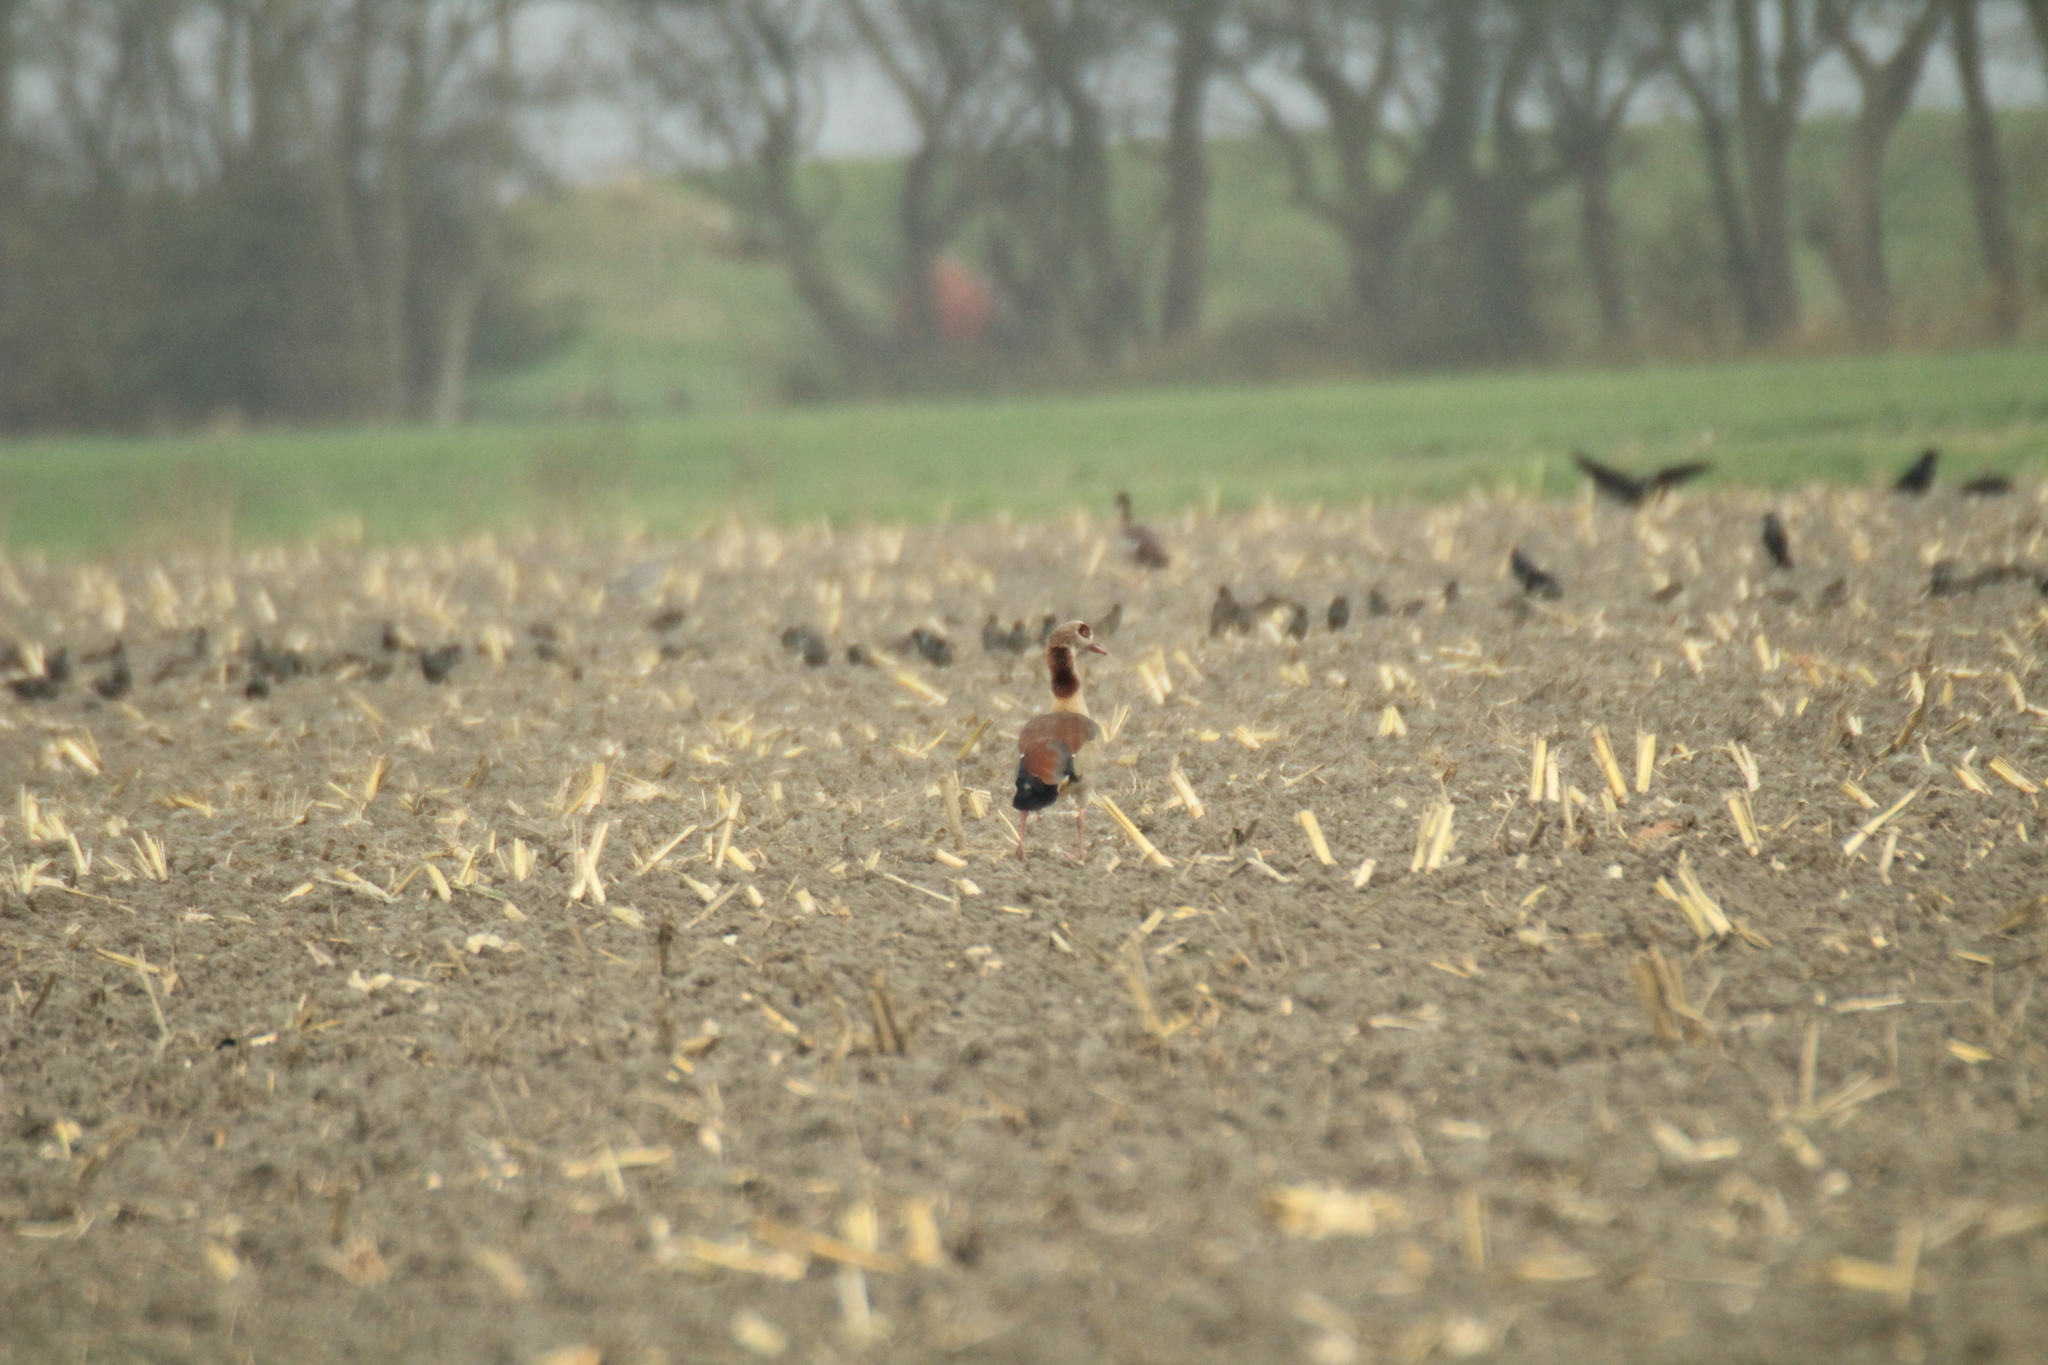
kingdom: Animalia
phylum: Chordata
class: Aves
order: Anseriformes
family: Anatidae
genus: Alopochen
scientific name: Alopochen aegyptiaca
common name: Egyptian goose
